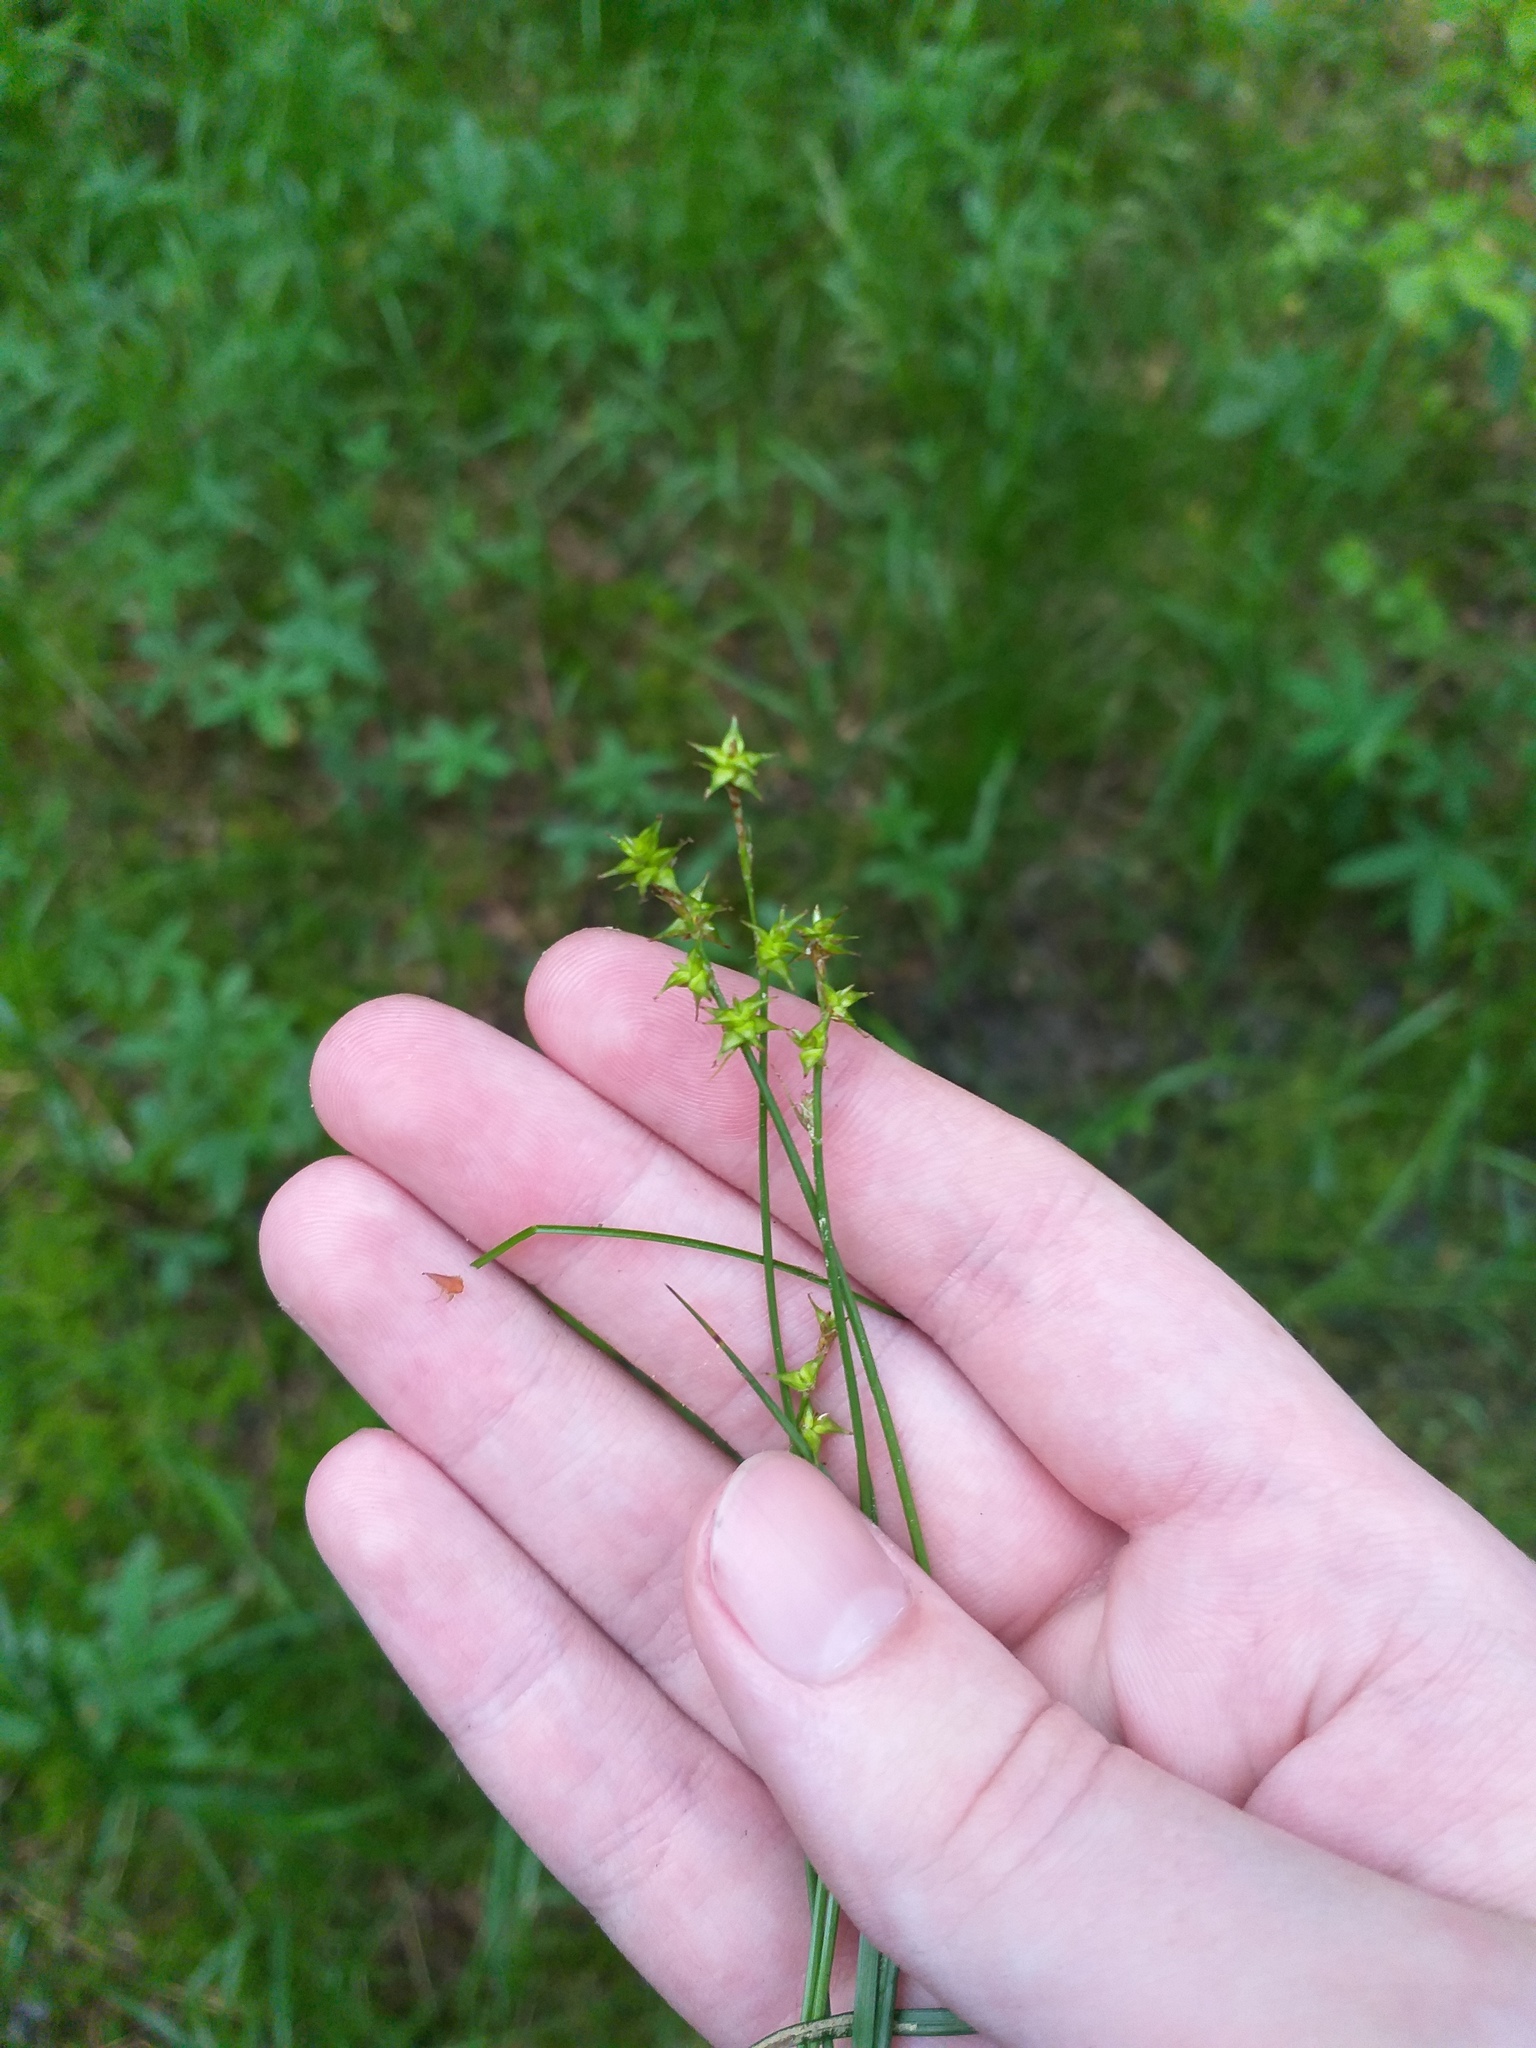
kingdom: Plantae
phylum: Tracheophyta
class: Liliopsida
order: Poales
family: Cyperaceae
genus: Carex
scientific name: Carex echinata
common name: Star sedge
